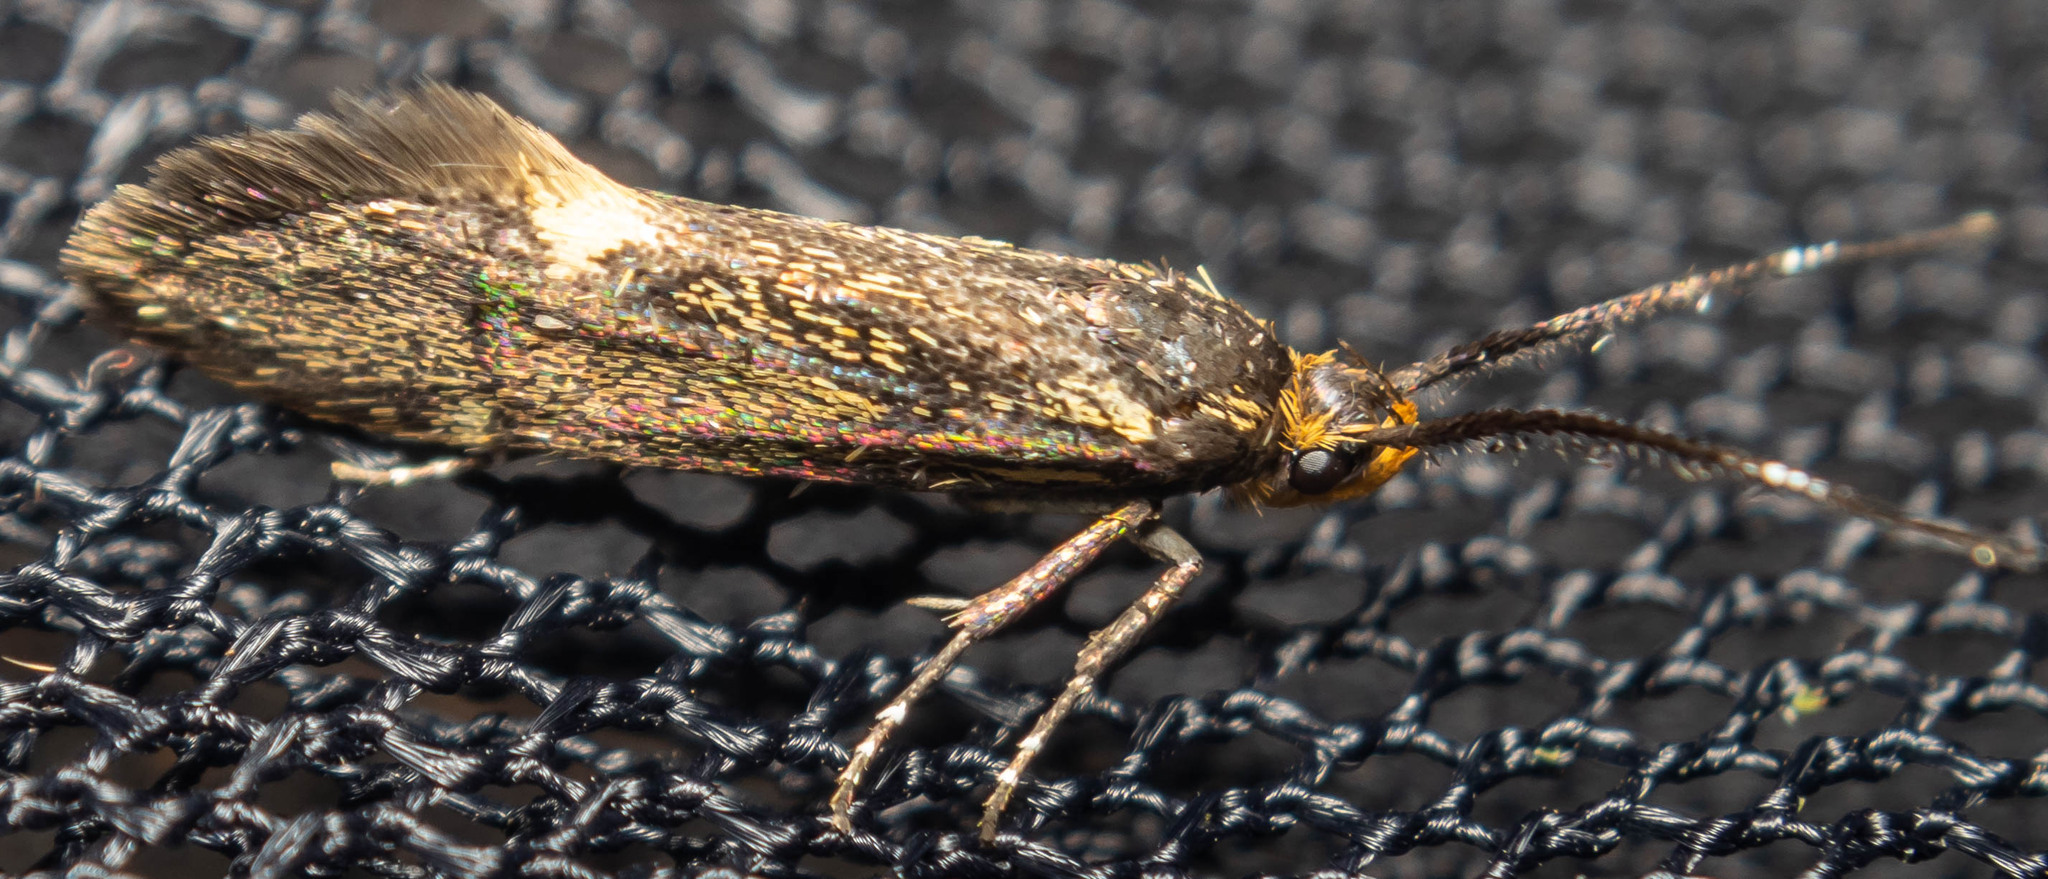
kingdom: Animalia
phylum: Arthropoda
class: Insecta
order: Lepidoptera
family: Oecophoridae
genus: Dafa
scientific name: Dafa Esperia sulphurella
